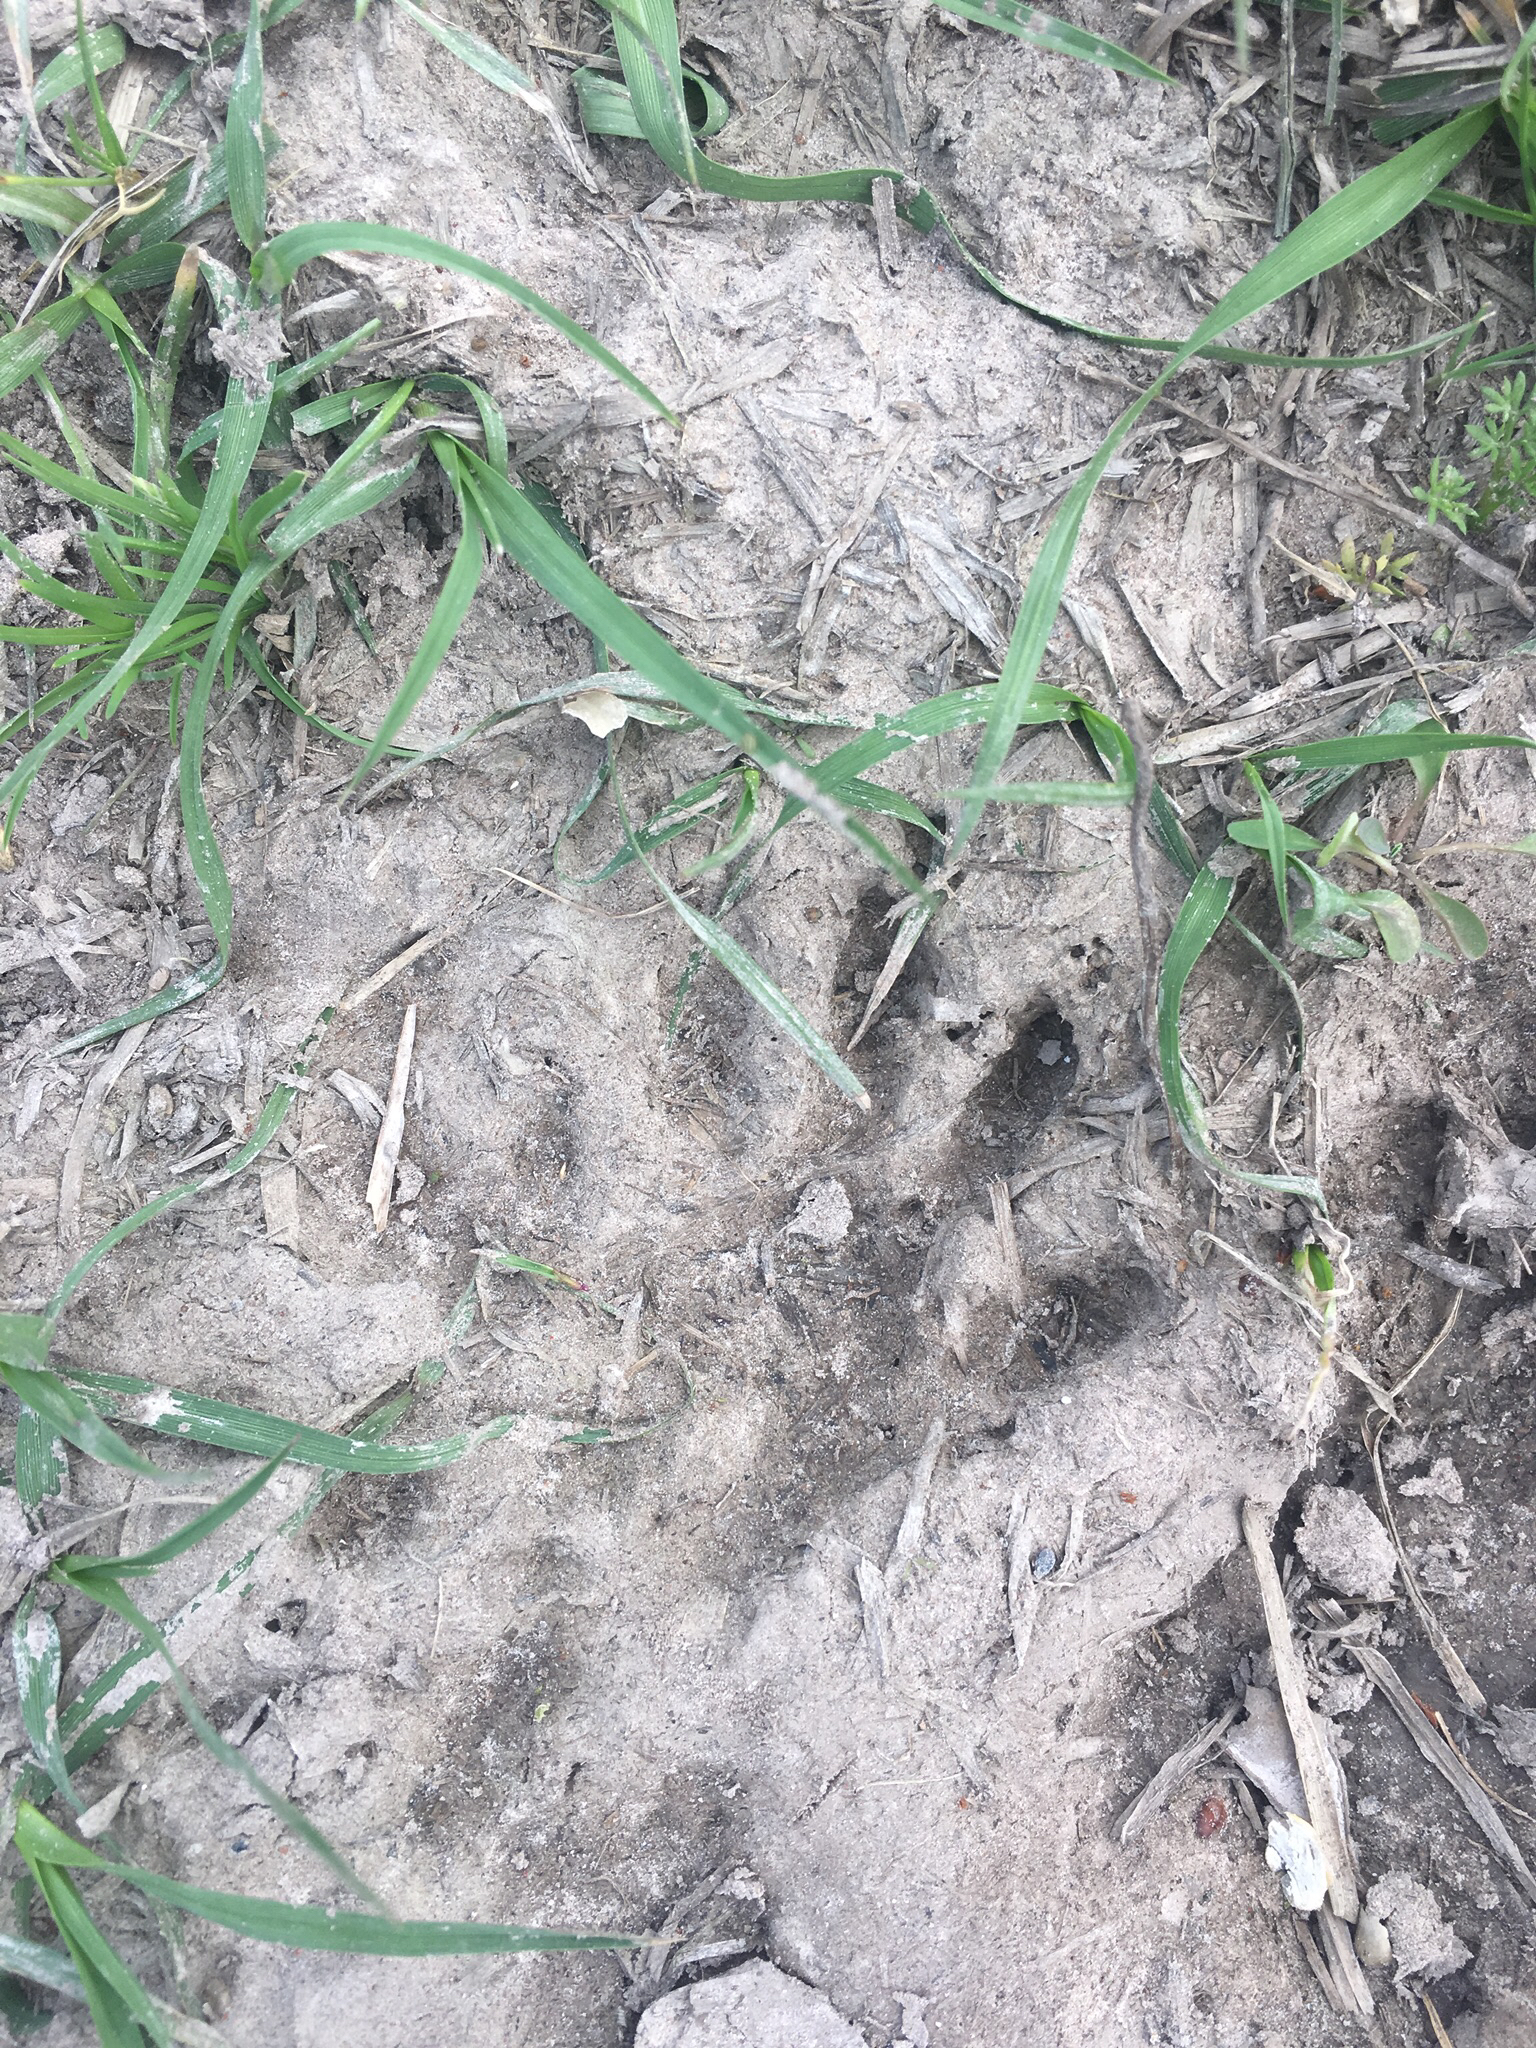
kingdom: Animalia
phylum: Chordata
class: Mammalia
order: Carnivora
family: Procyonidae
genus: Procyon
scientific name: Procyon lotor
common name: Raccoon
